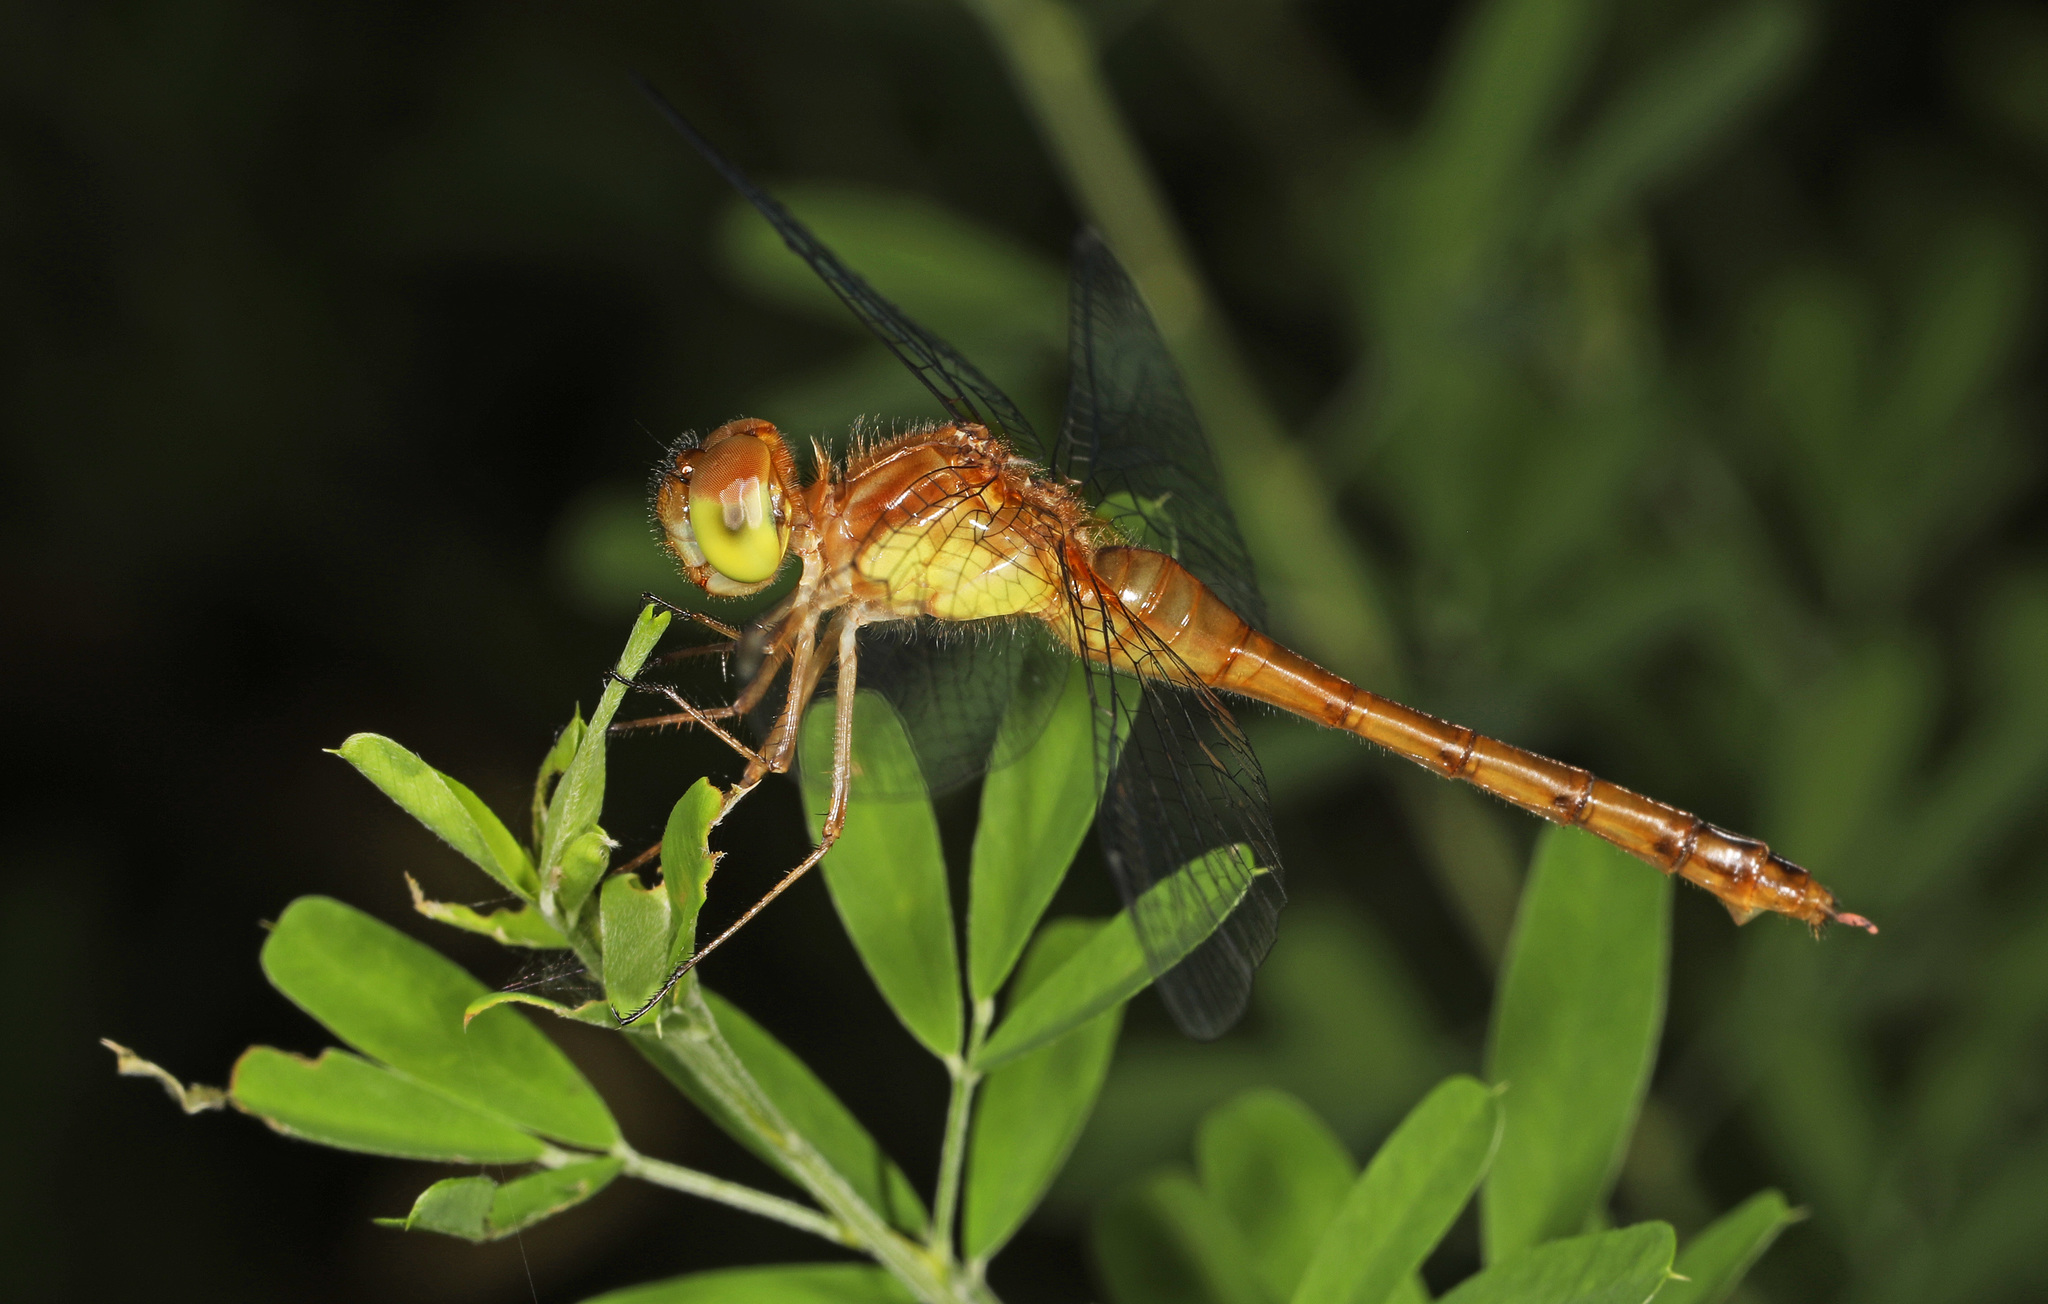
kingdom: Animalia
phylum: Arthropoda
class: Insecta
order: Odonata
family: Libellulidae
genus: Sympetrum
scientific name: Sympetrum vicinum
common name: Autumn meadowhawk
